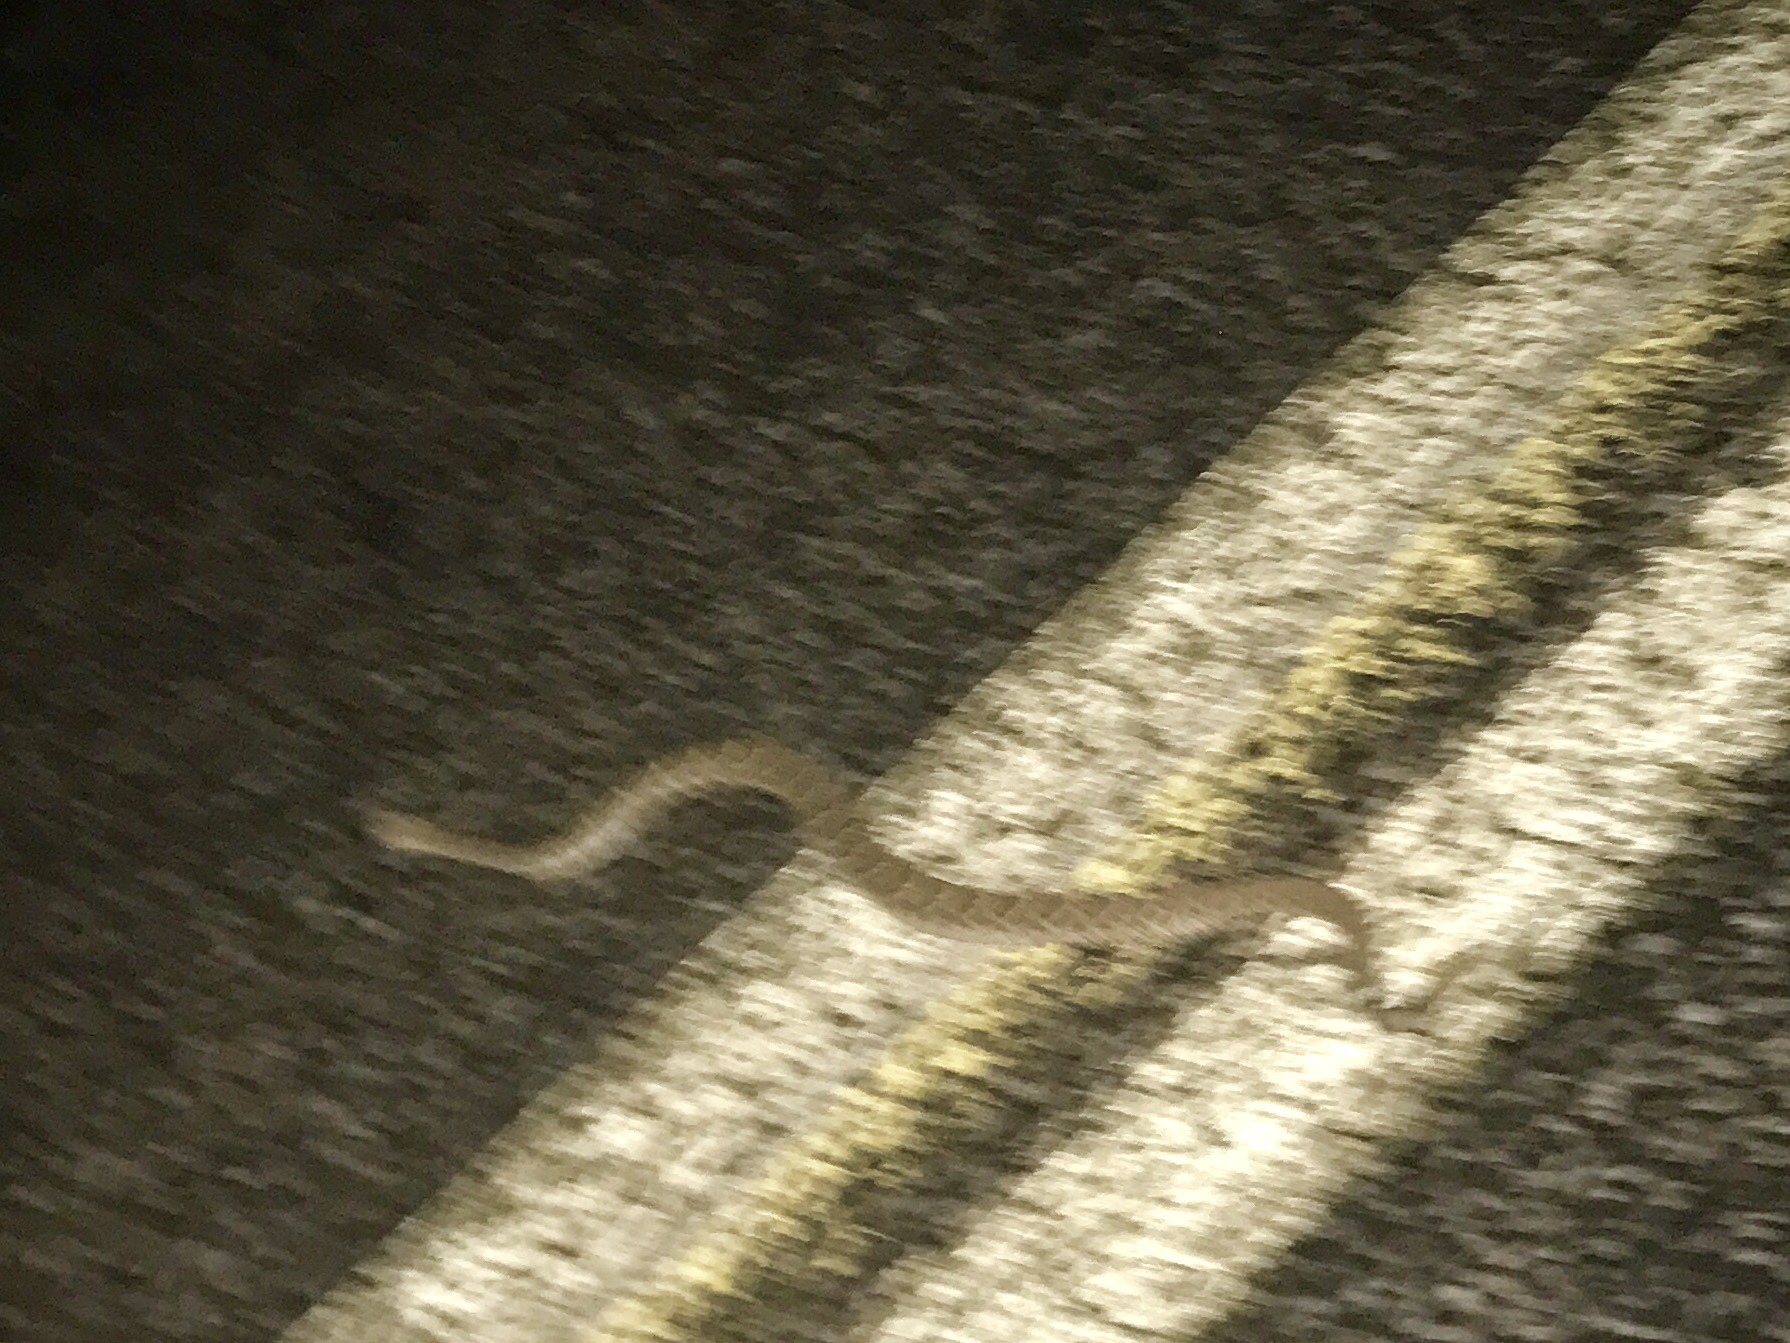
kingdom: Animalia
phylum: Chordata
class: Squamata
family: Viperidae
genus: Crotalus
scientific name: Crotalus atrox
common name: Western diamond-backed rattlesnake
